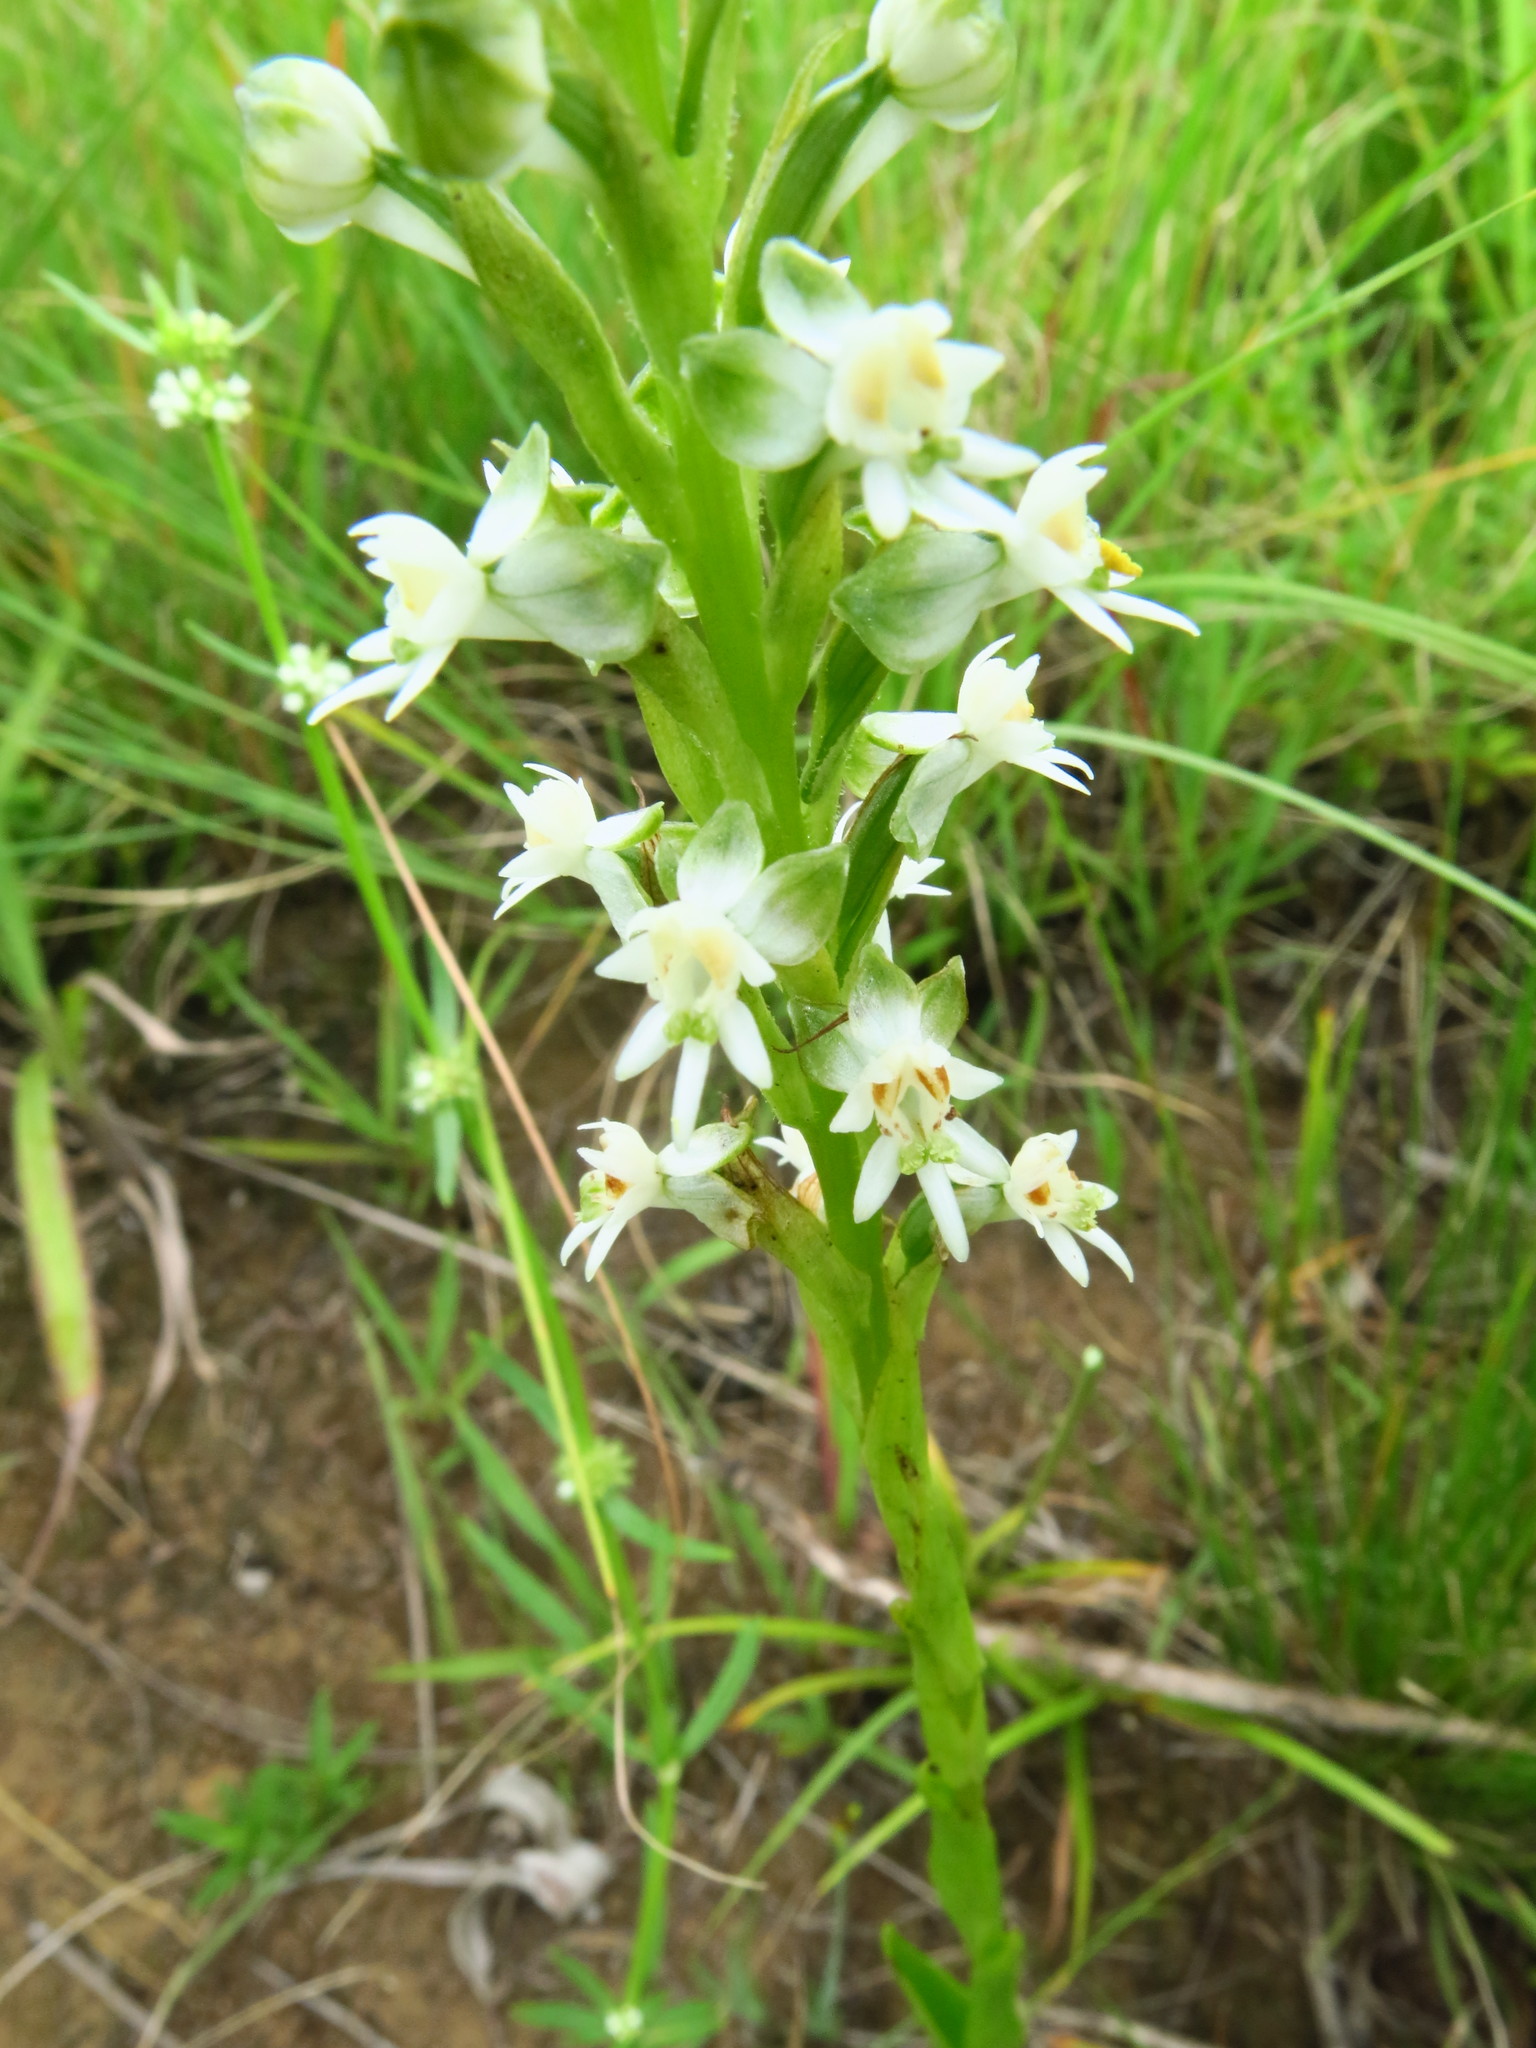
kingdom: Plantae
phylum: Tracheophyta
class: Liliopsida
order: Asparagales
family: Orchidaceae
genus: Habenaria
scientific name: Habenaria dives
